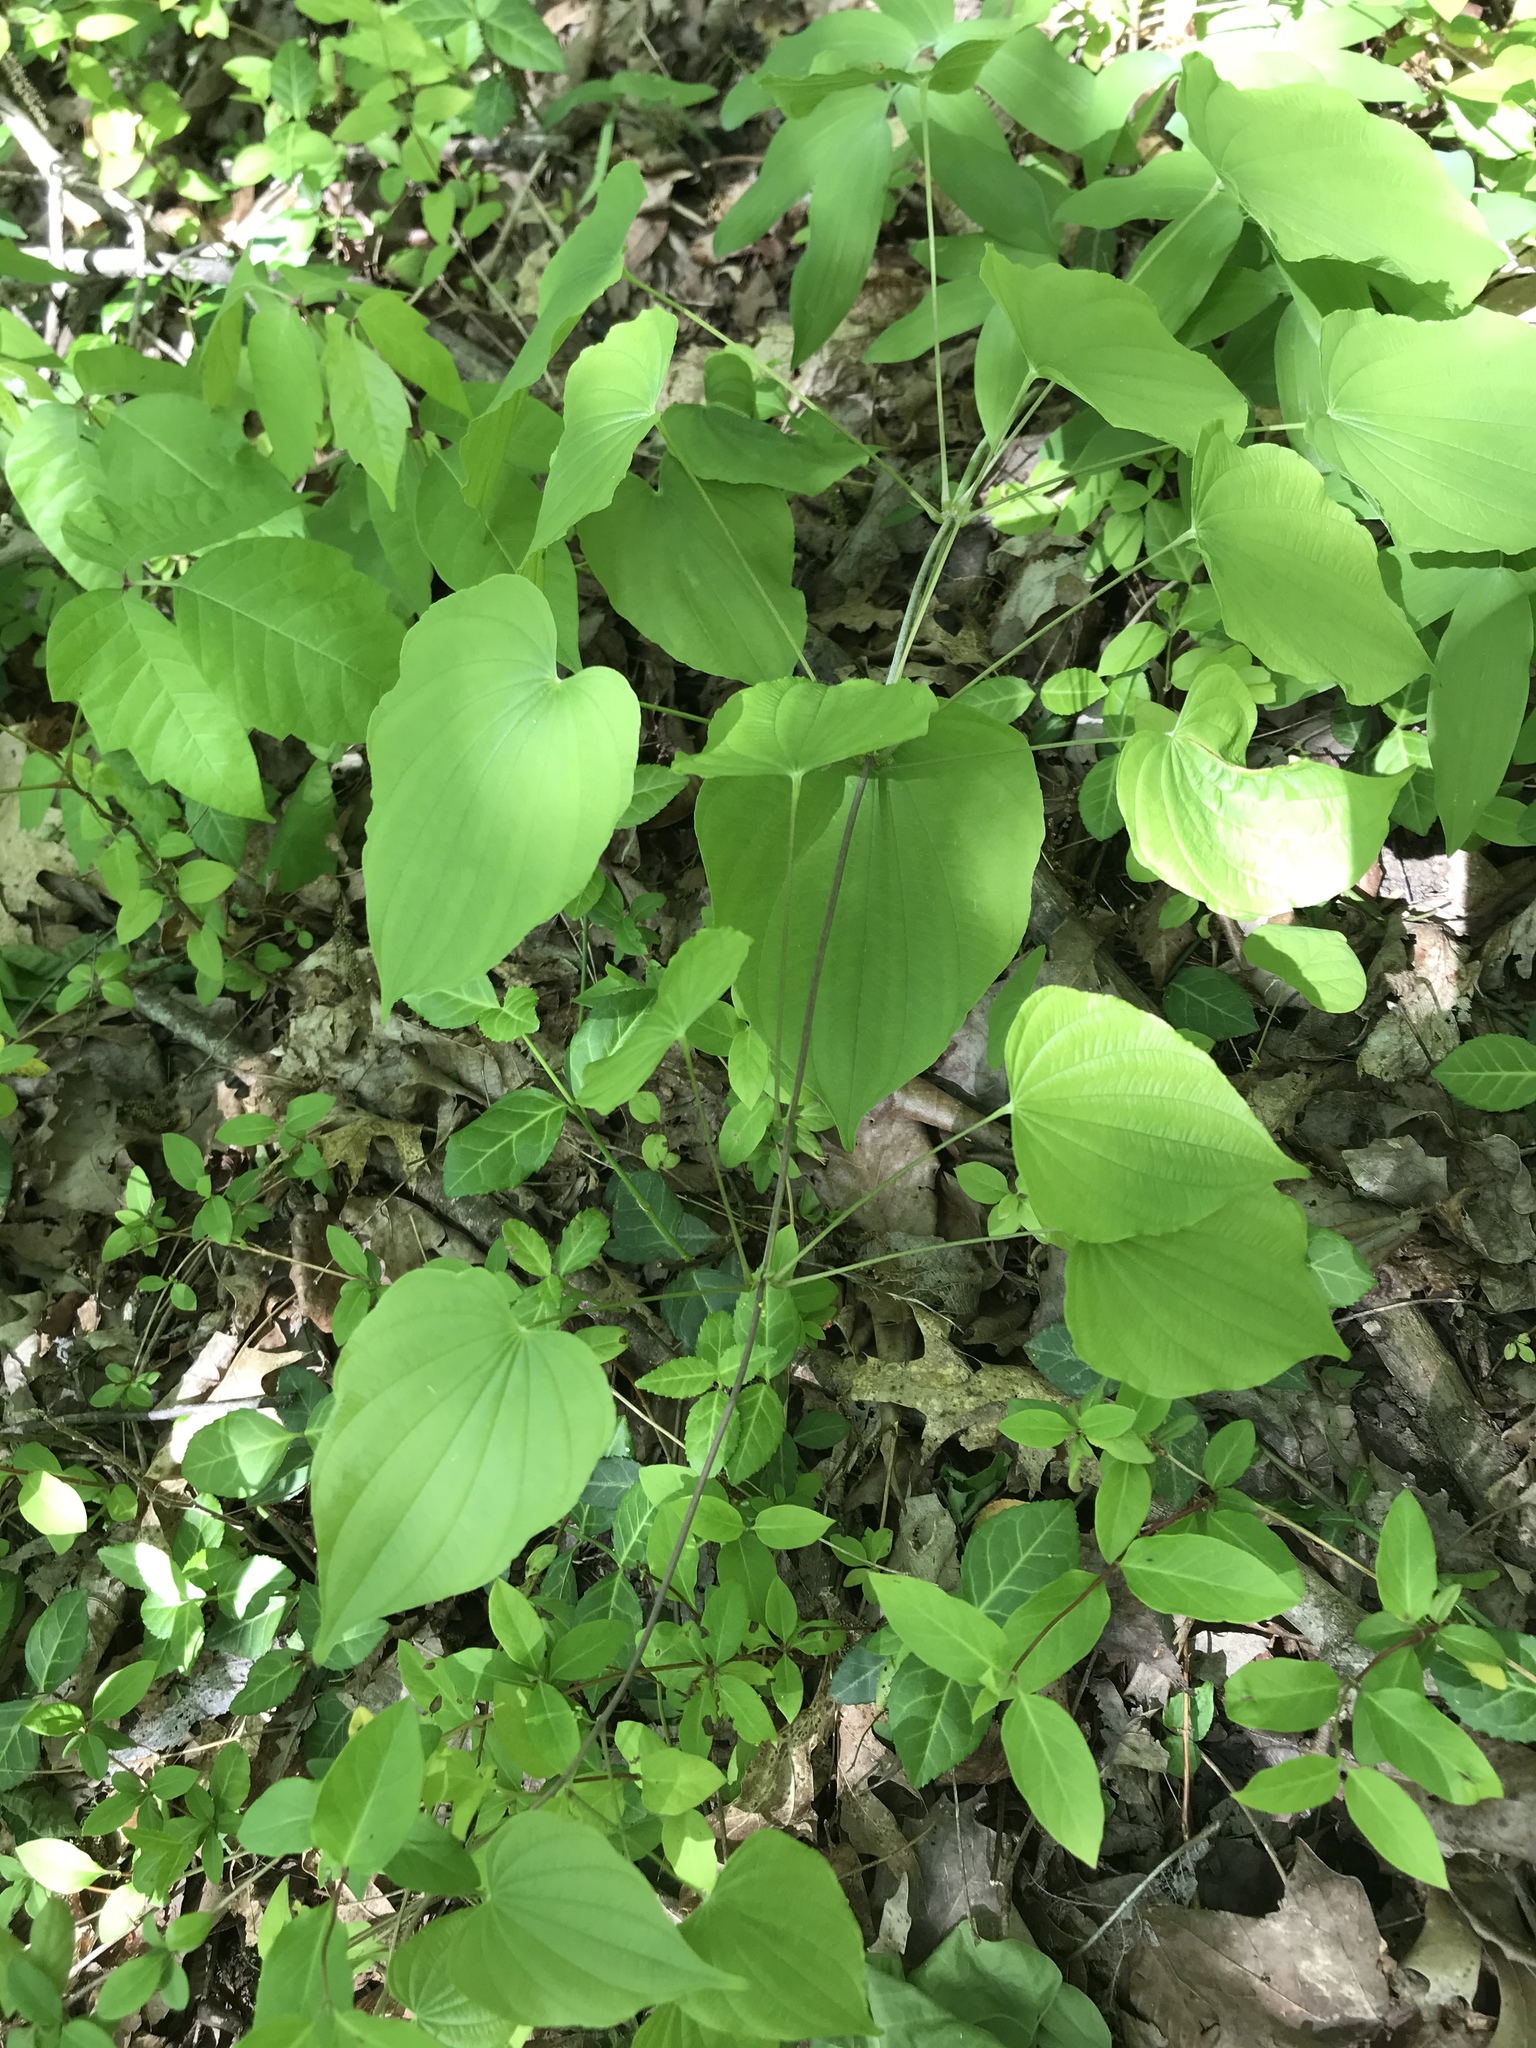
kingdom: Plantae
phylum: Tracheophyta
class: Liliopsida
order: Dioscoreales
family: Dioscoreaceae
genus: Dioscorea
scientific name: Dioscorea villosa
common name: Wild yam
